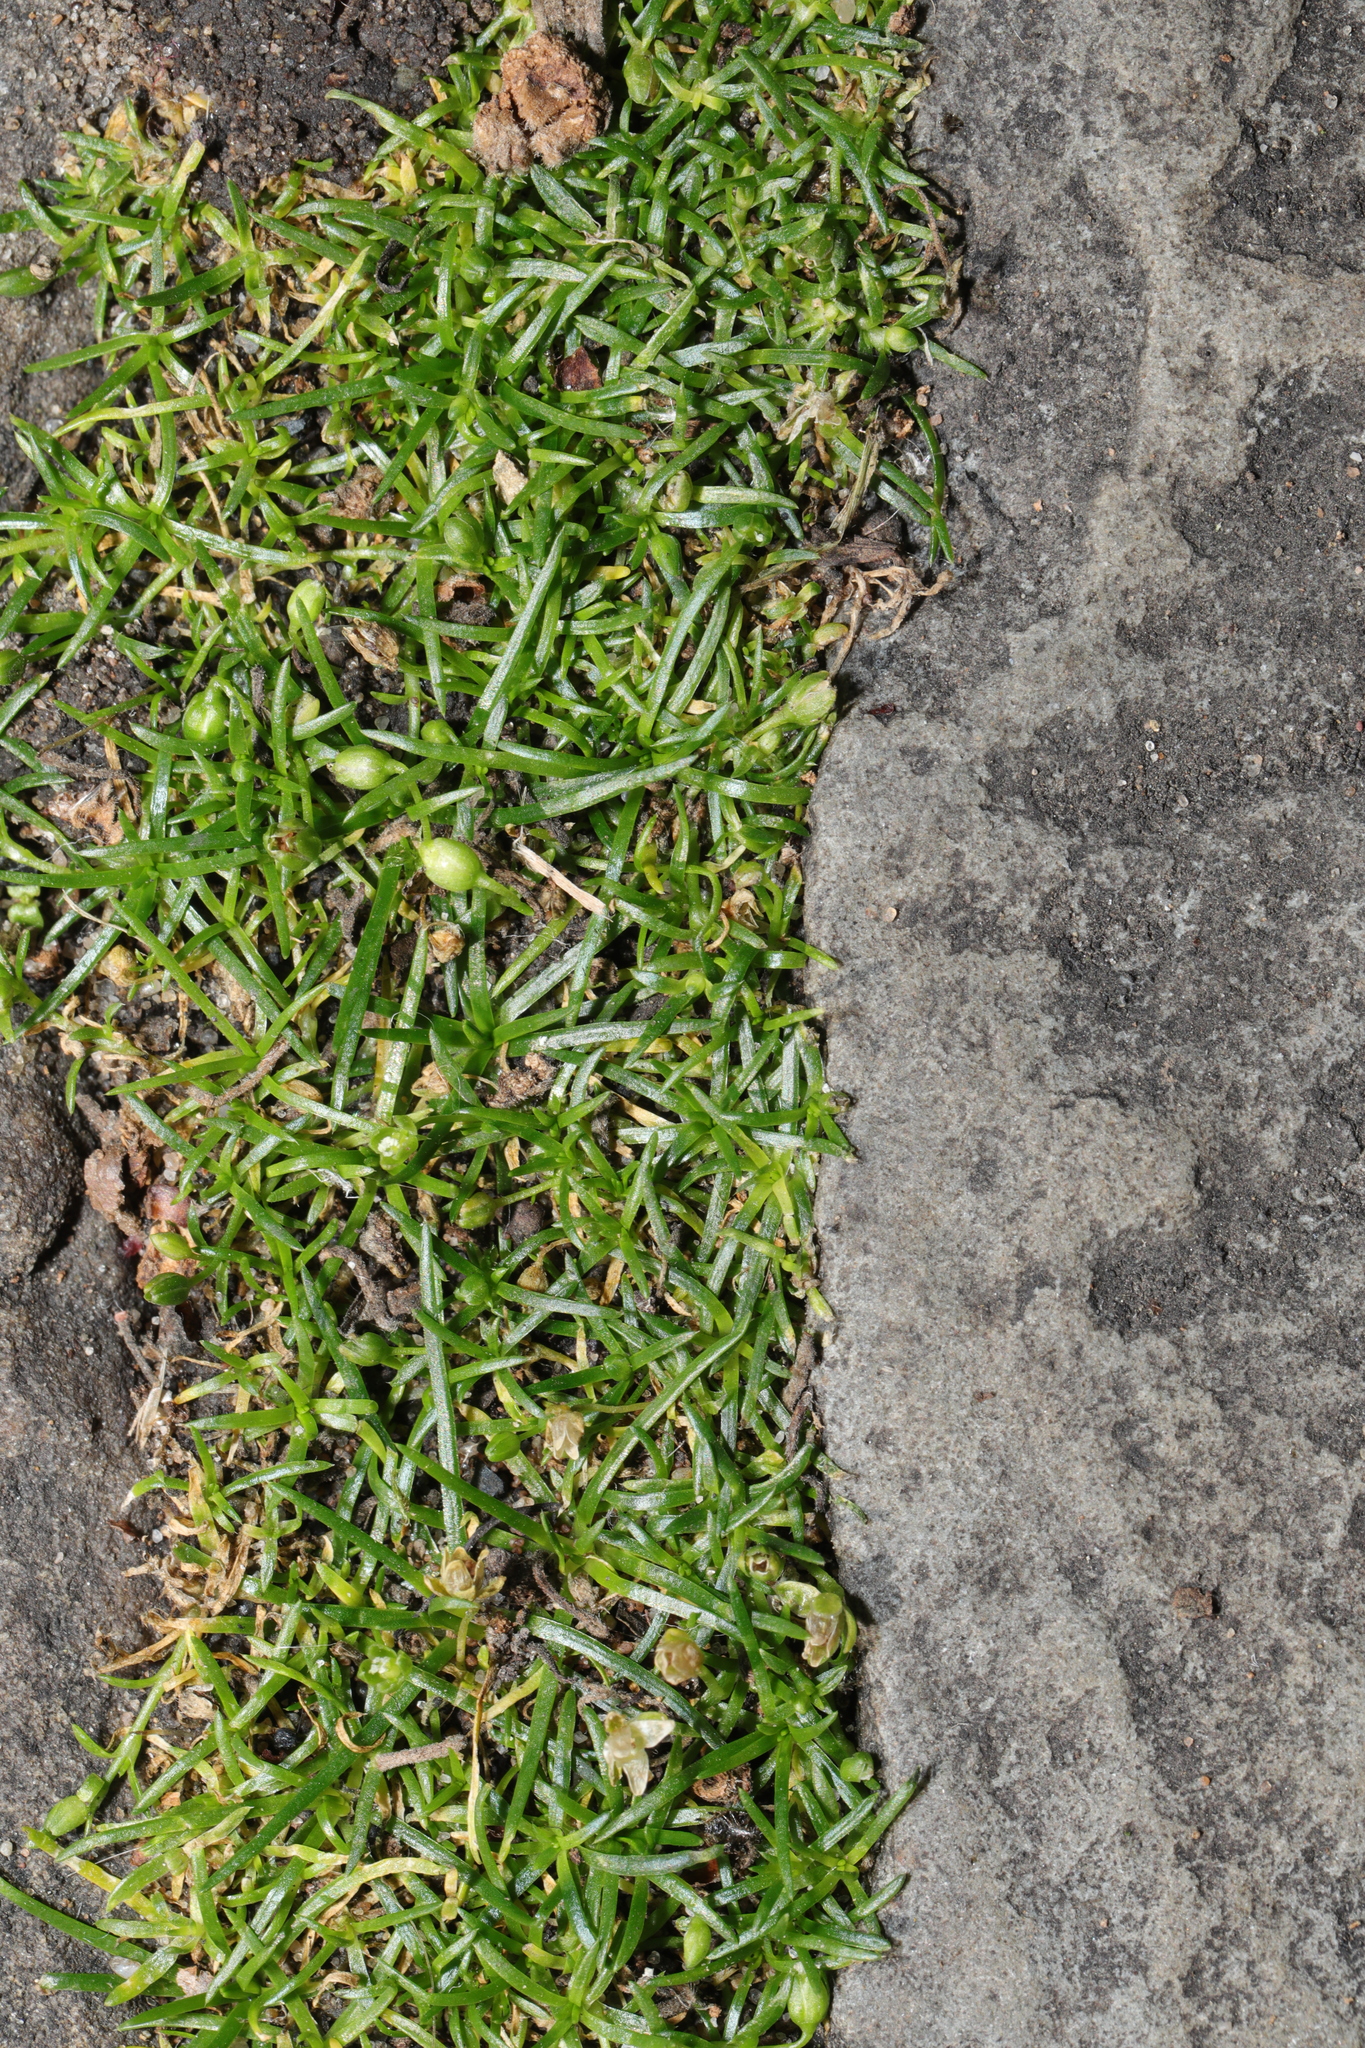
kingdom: Plantae
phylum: Tracheophyta
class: Magnoliopsida
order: Caryophyllales
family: Caryophyllaceae
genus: Sagina
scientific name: Sagina procumbens
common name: Procumbent pearlwort
